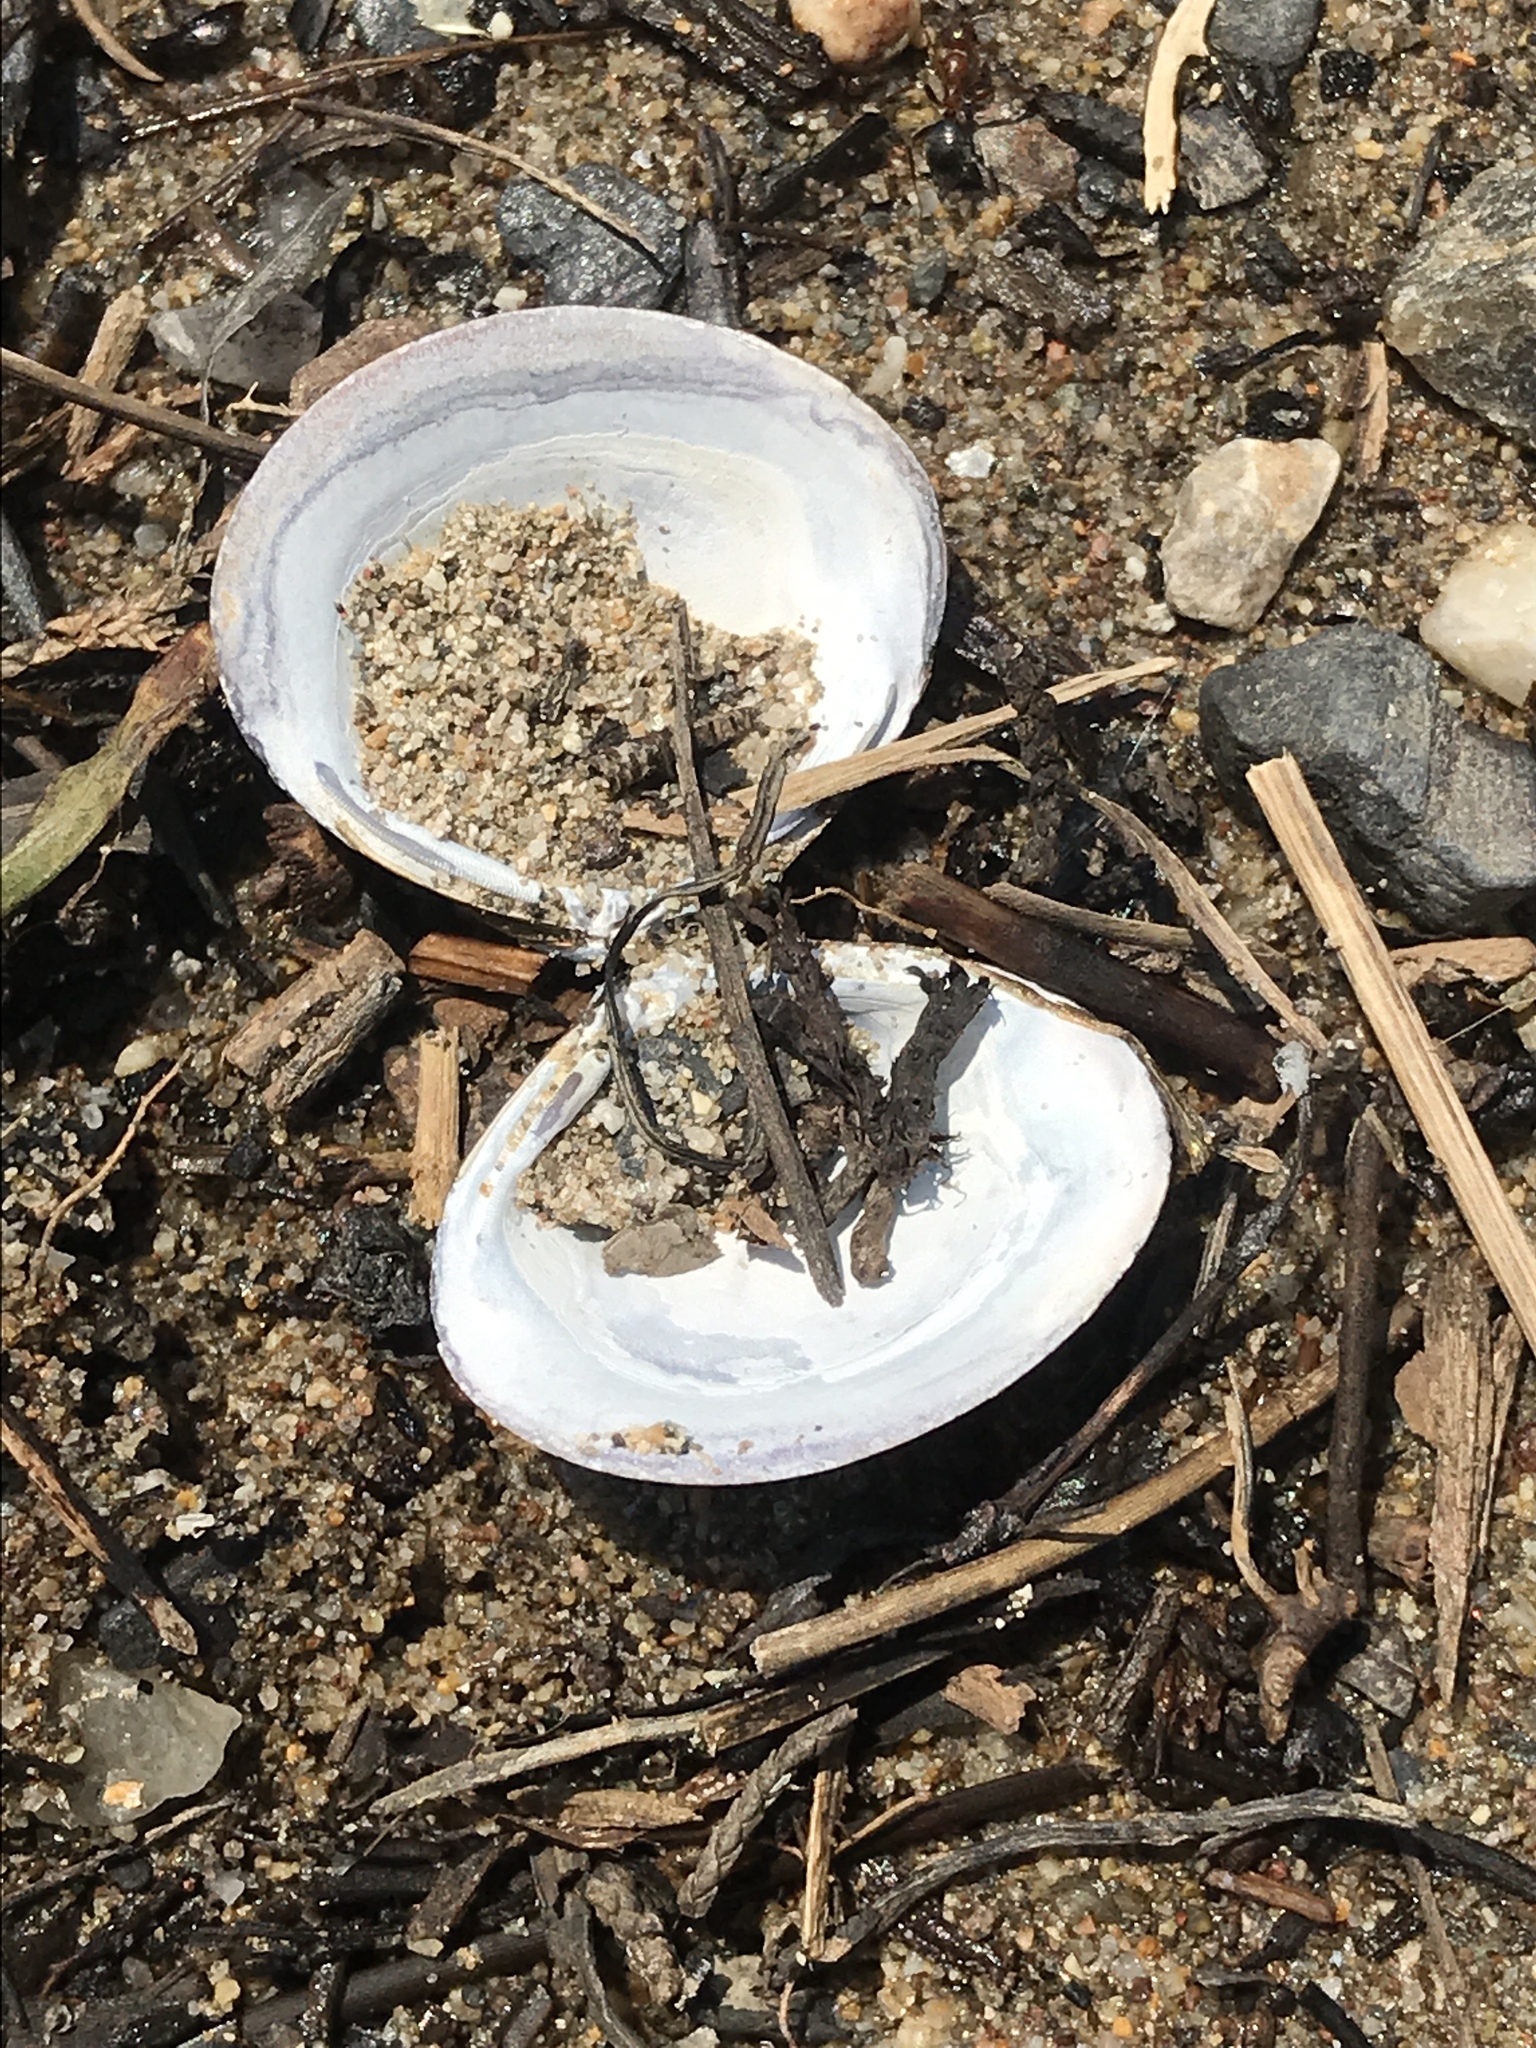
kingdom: Animalia
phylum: Mollusca
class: Bivalvia
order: Venerida
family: Cyrenidae
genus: Corbicula
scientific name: Corbicula fluminea
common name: Asian clam
